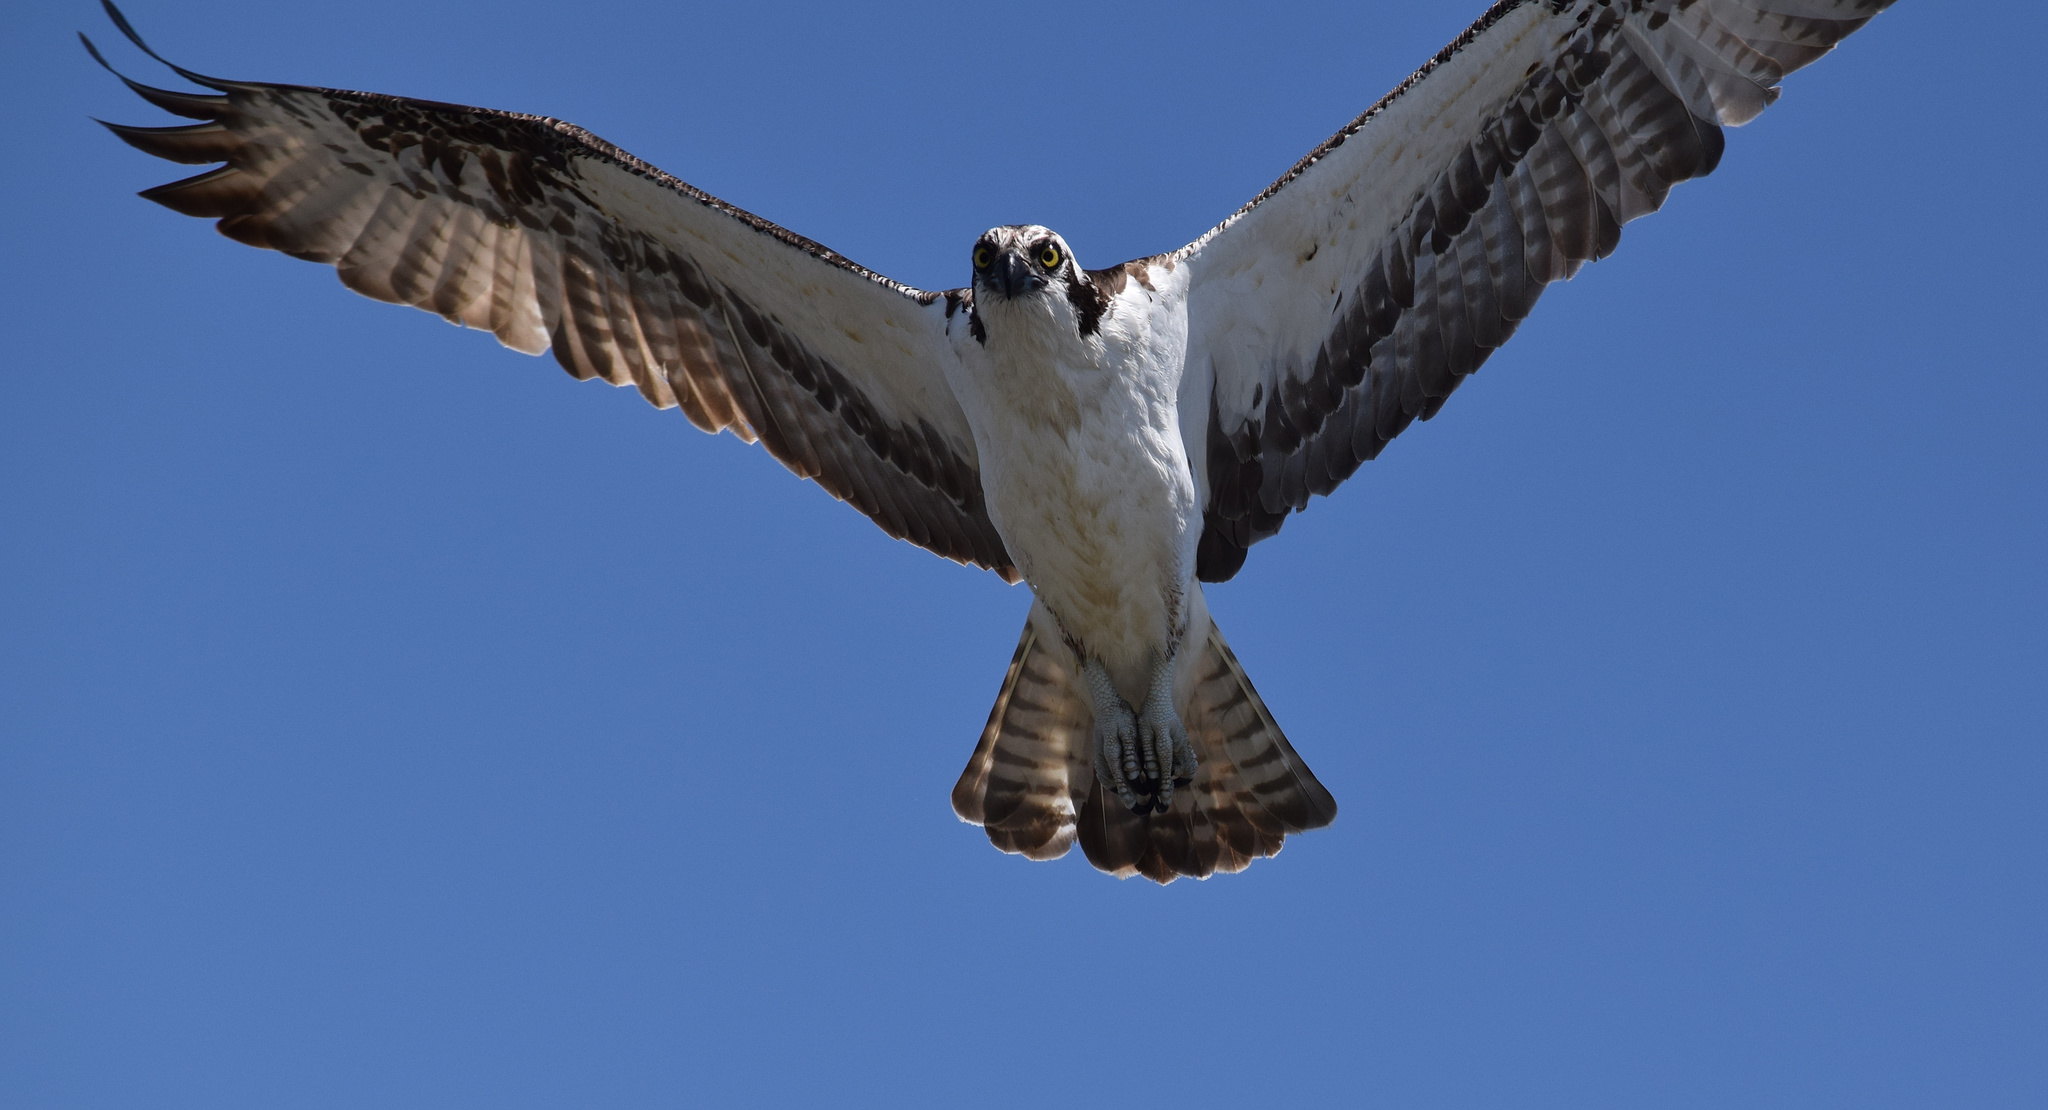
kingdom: Animalia
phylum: Chordata
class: Aves
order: Accipitriformes
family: Pandionidae
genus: Pandion
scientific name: Pandion haliaetus
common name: Osprey
